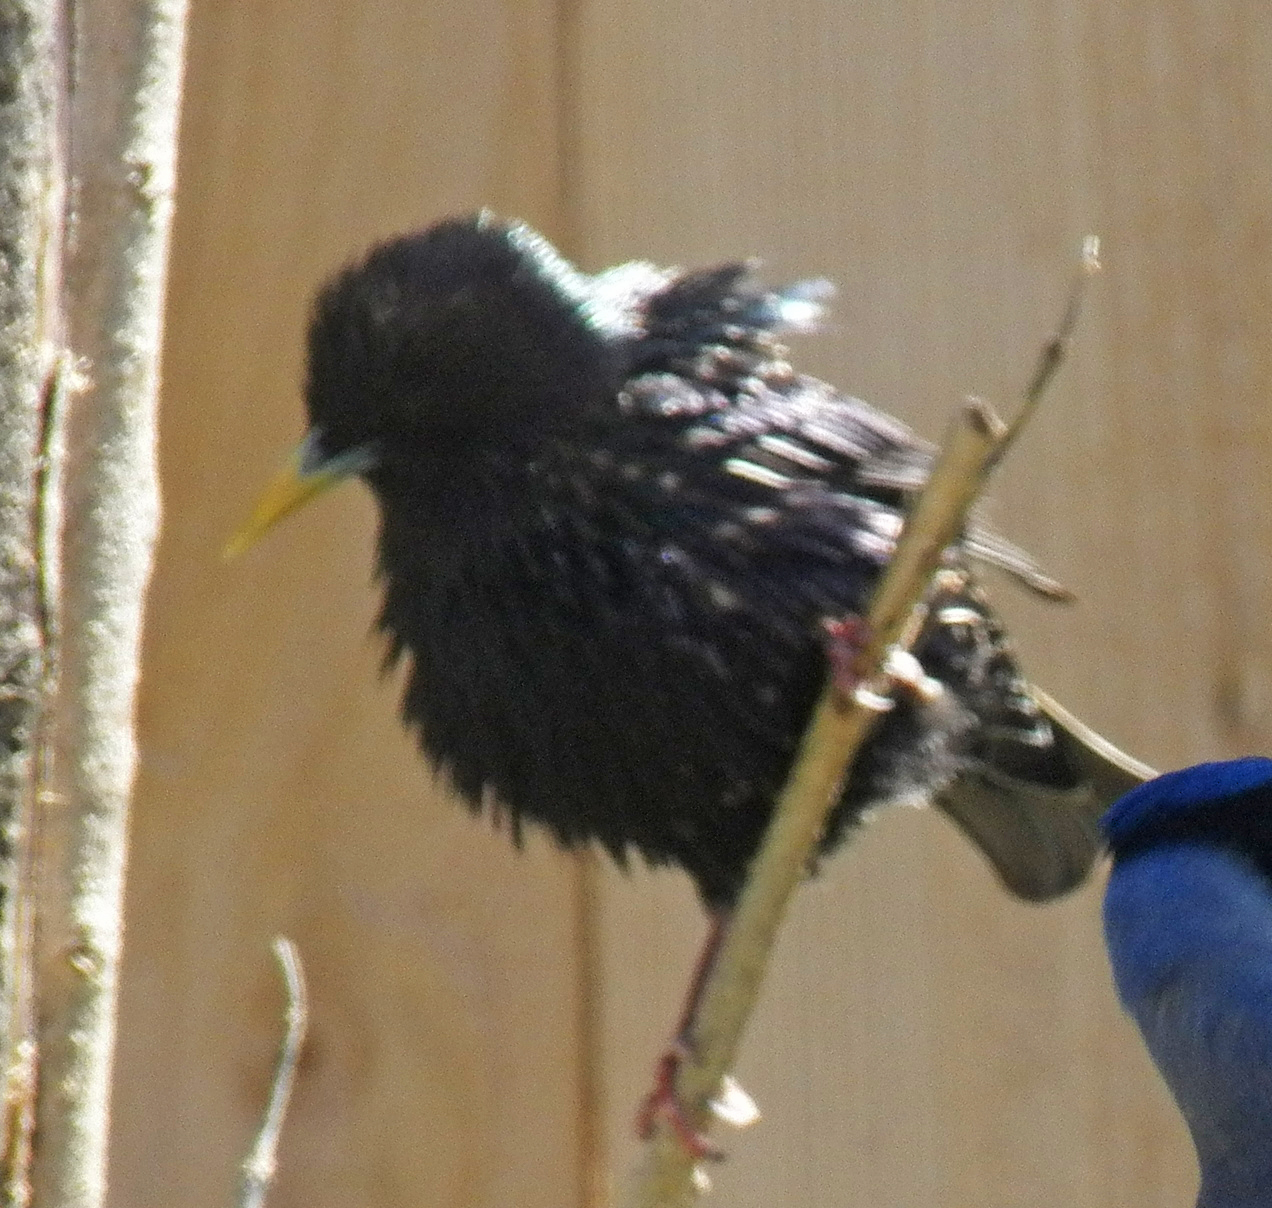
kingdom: Animalia
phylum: Chordata
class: Aves
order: Passeriformes
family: Sturnidae
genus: Sturnus
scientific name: Sturnus vulgaris
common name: Common starling
